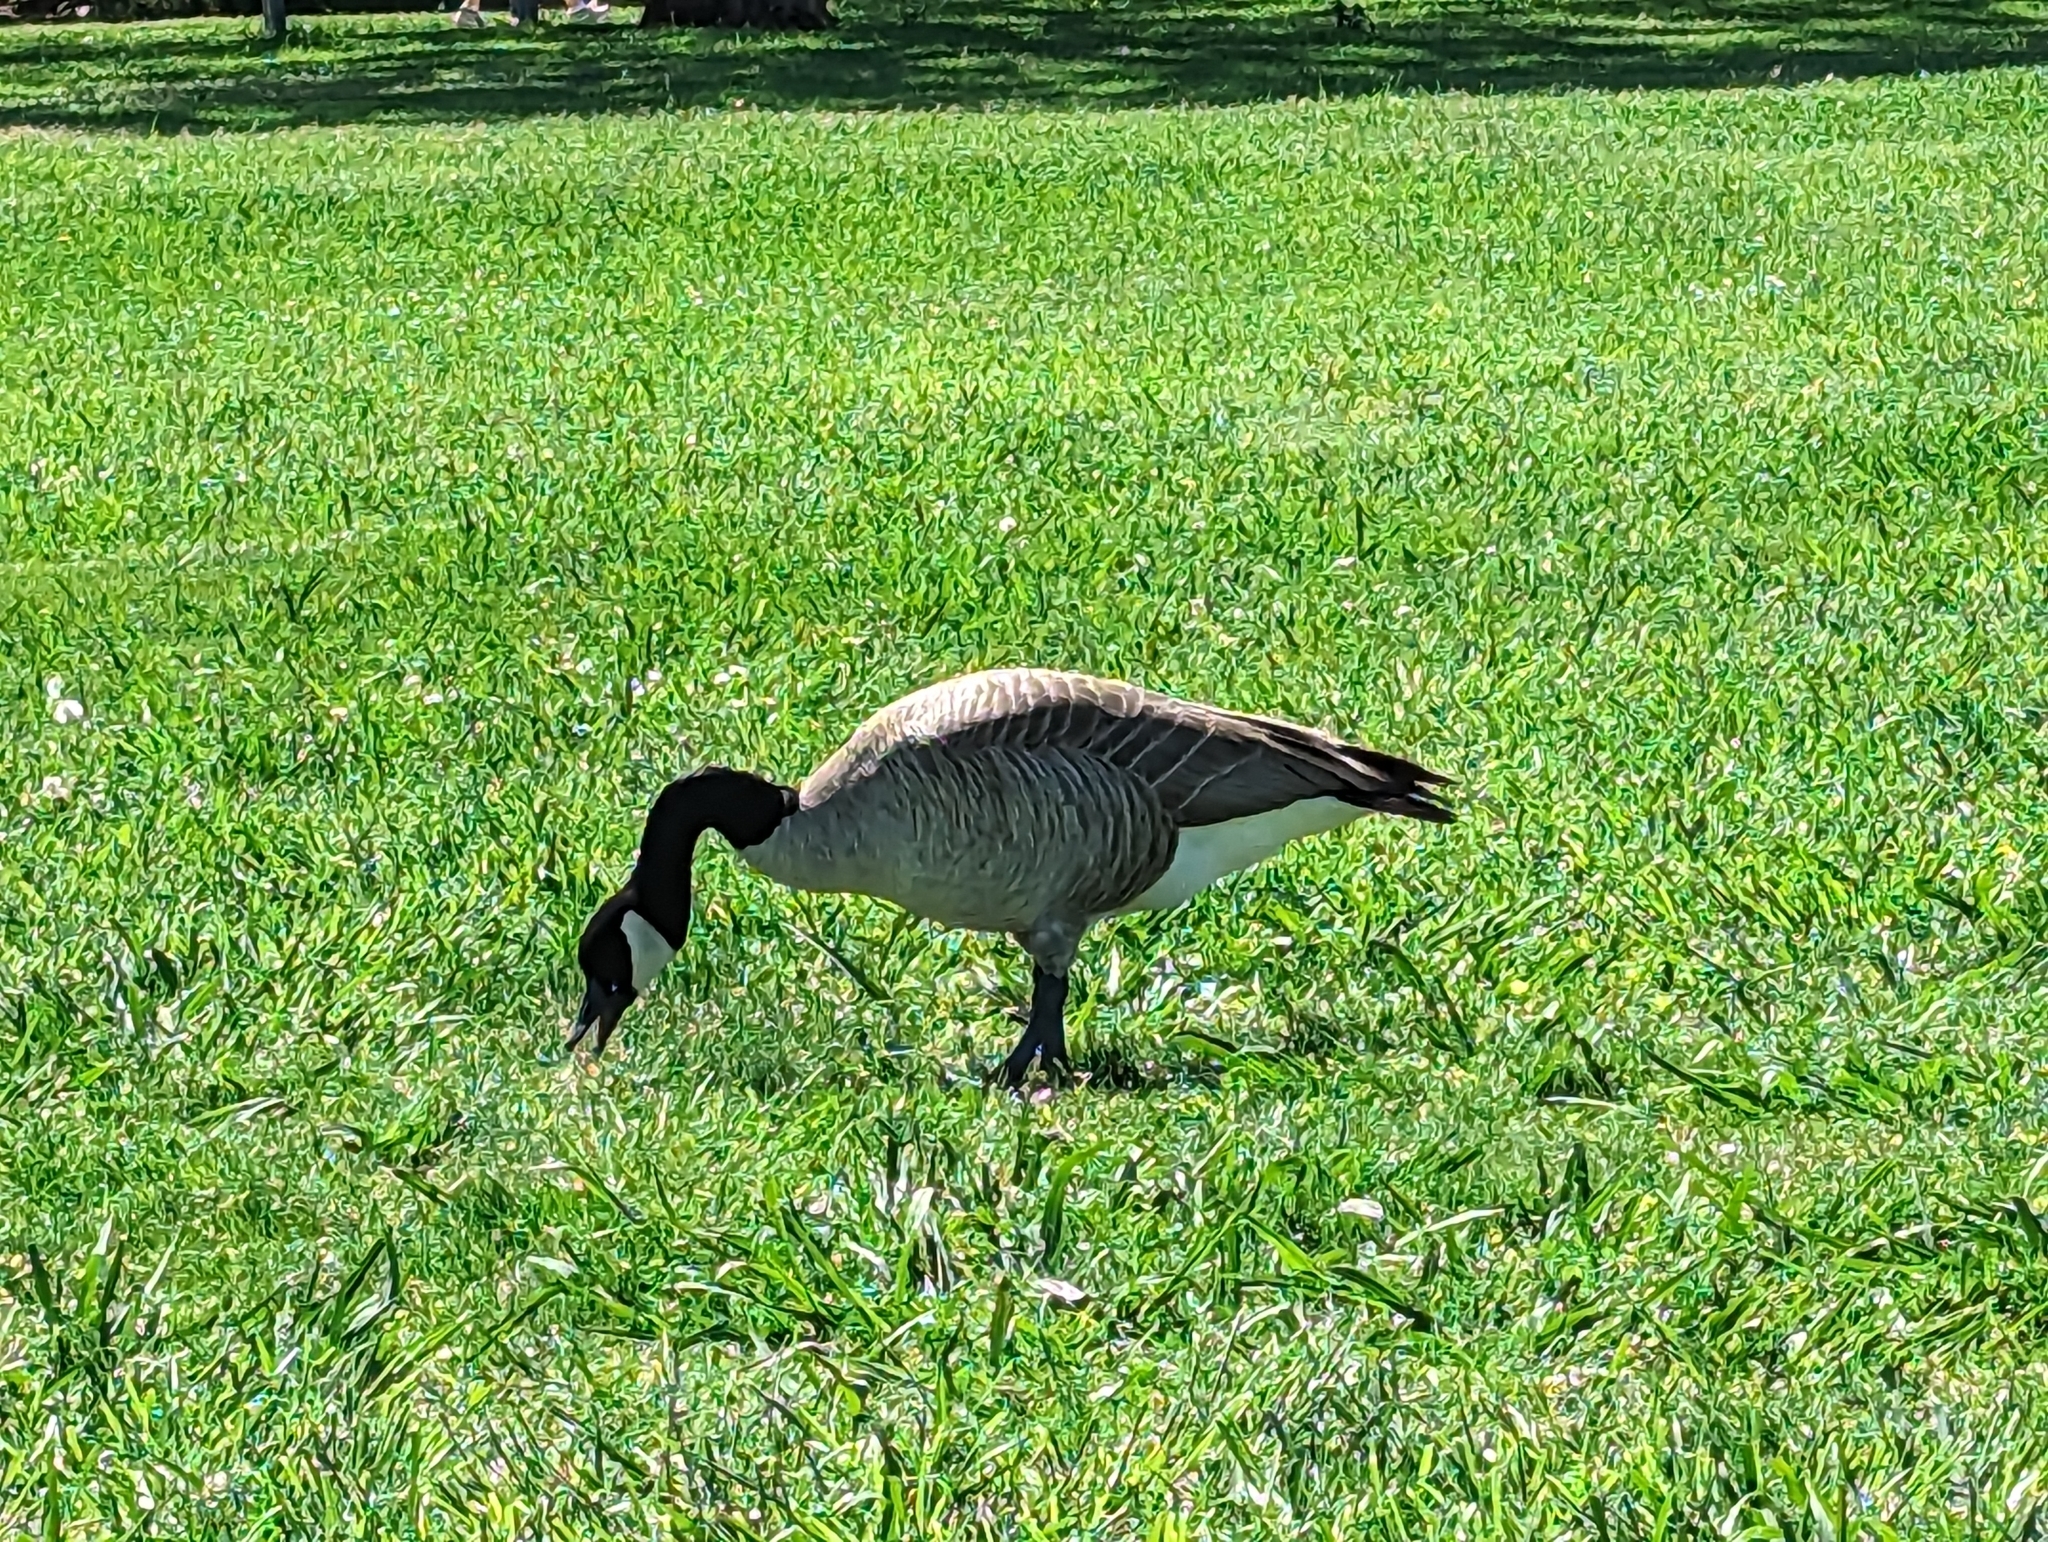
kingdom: Animalia
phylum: Chordata
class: Aves
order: Anseriformes
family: Anatidae
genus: Branta
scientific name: Branta canadensis
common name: Canada goose
